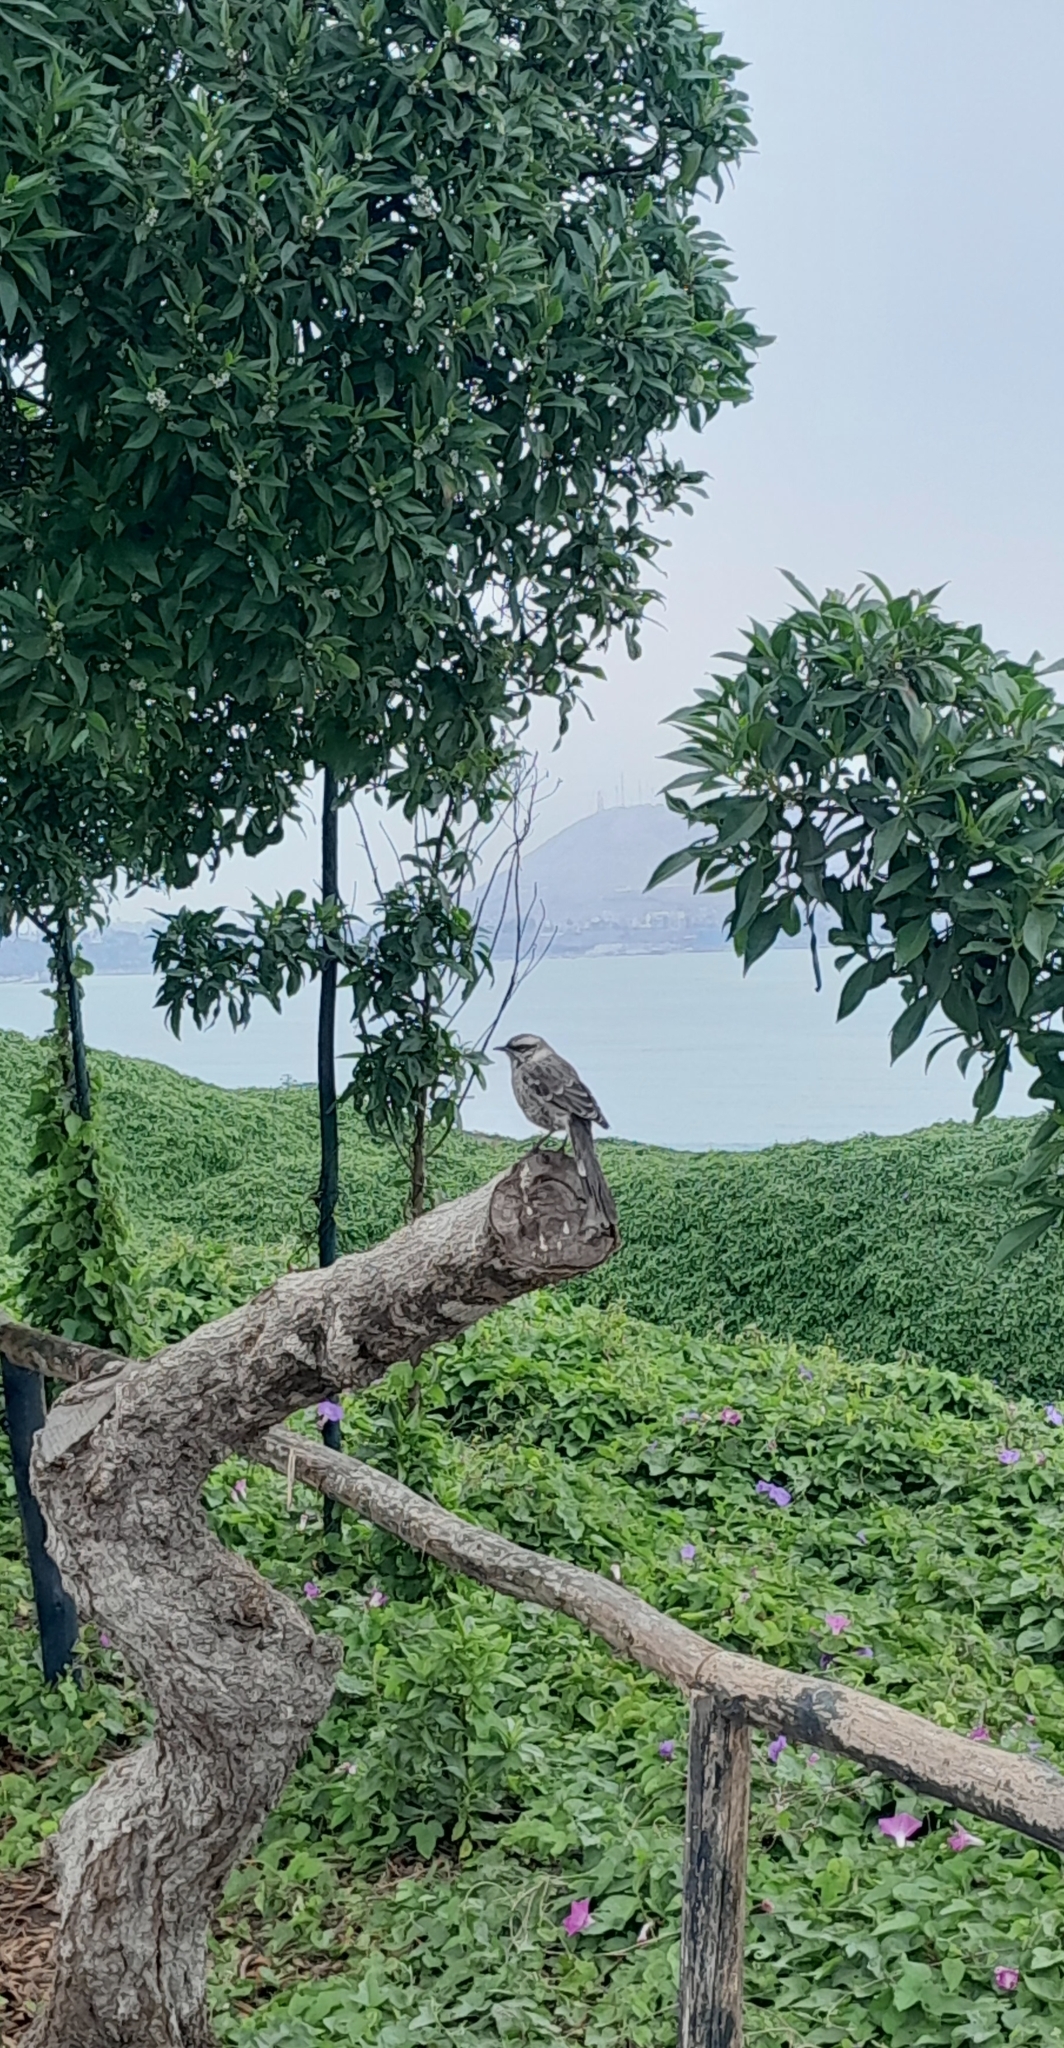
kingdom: Animalia
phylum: Chordata
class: Aves
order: Passeriformes
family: Mimidae
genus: Mimus
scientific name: Mimus longicaudatus
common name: Long-tailed mockingbird
